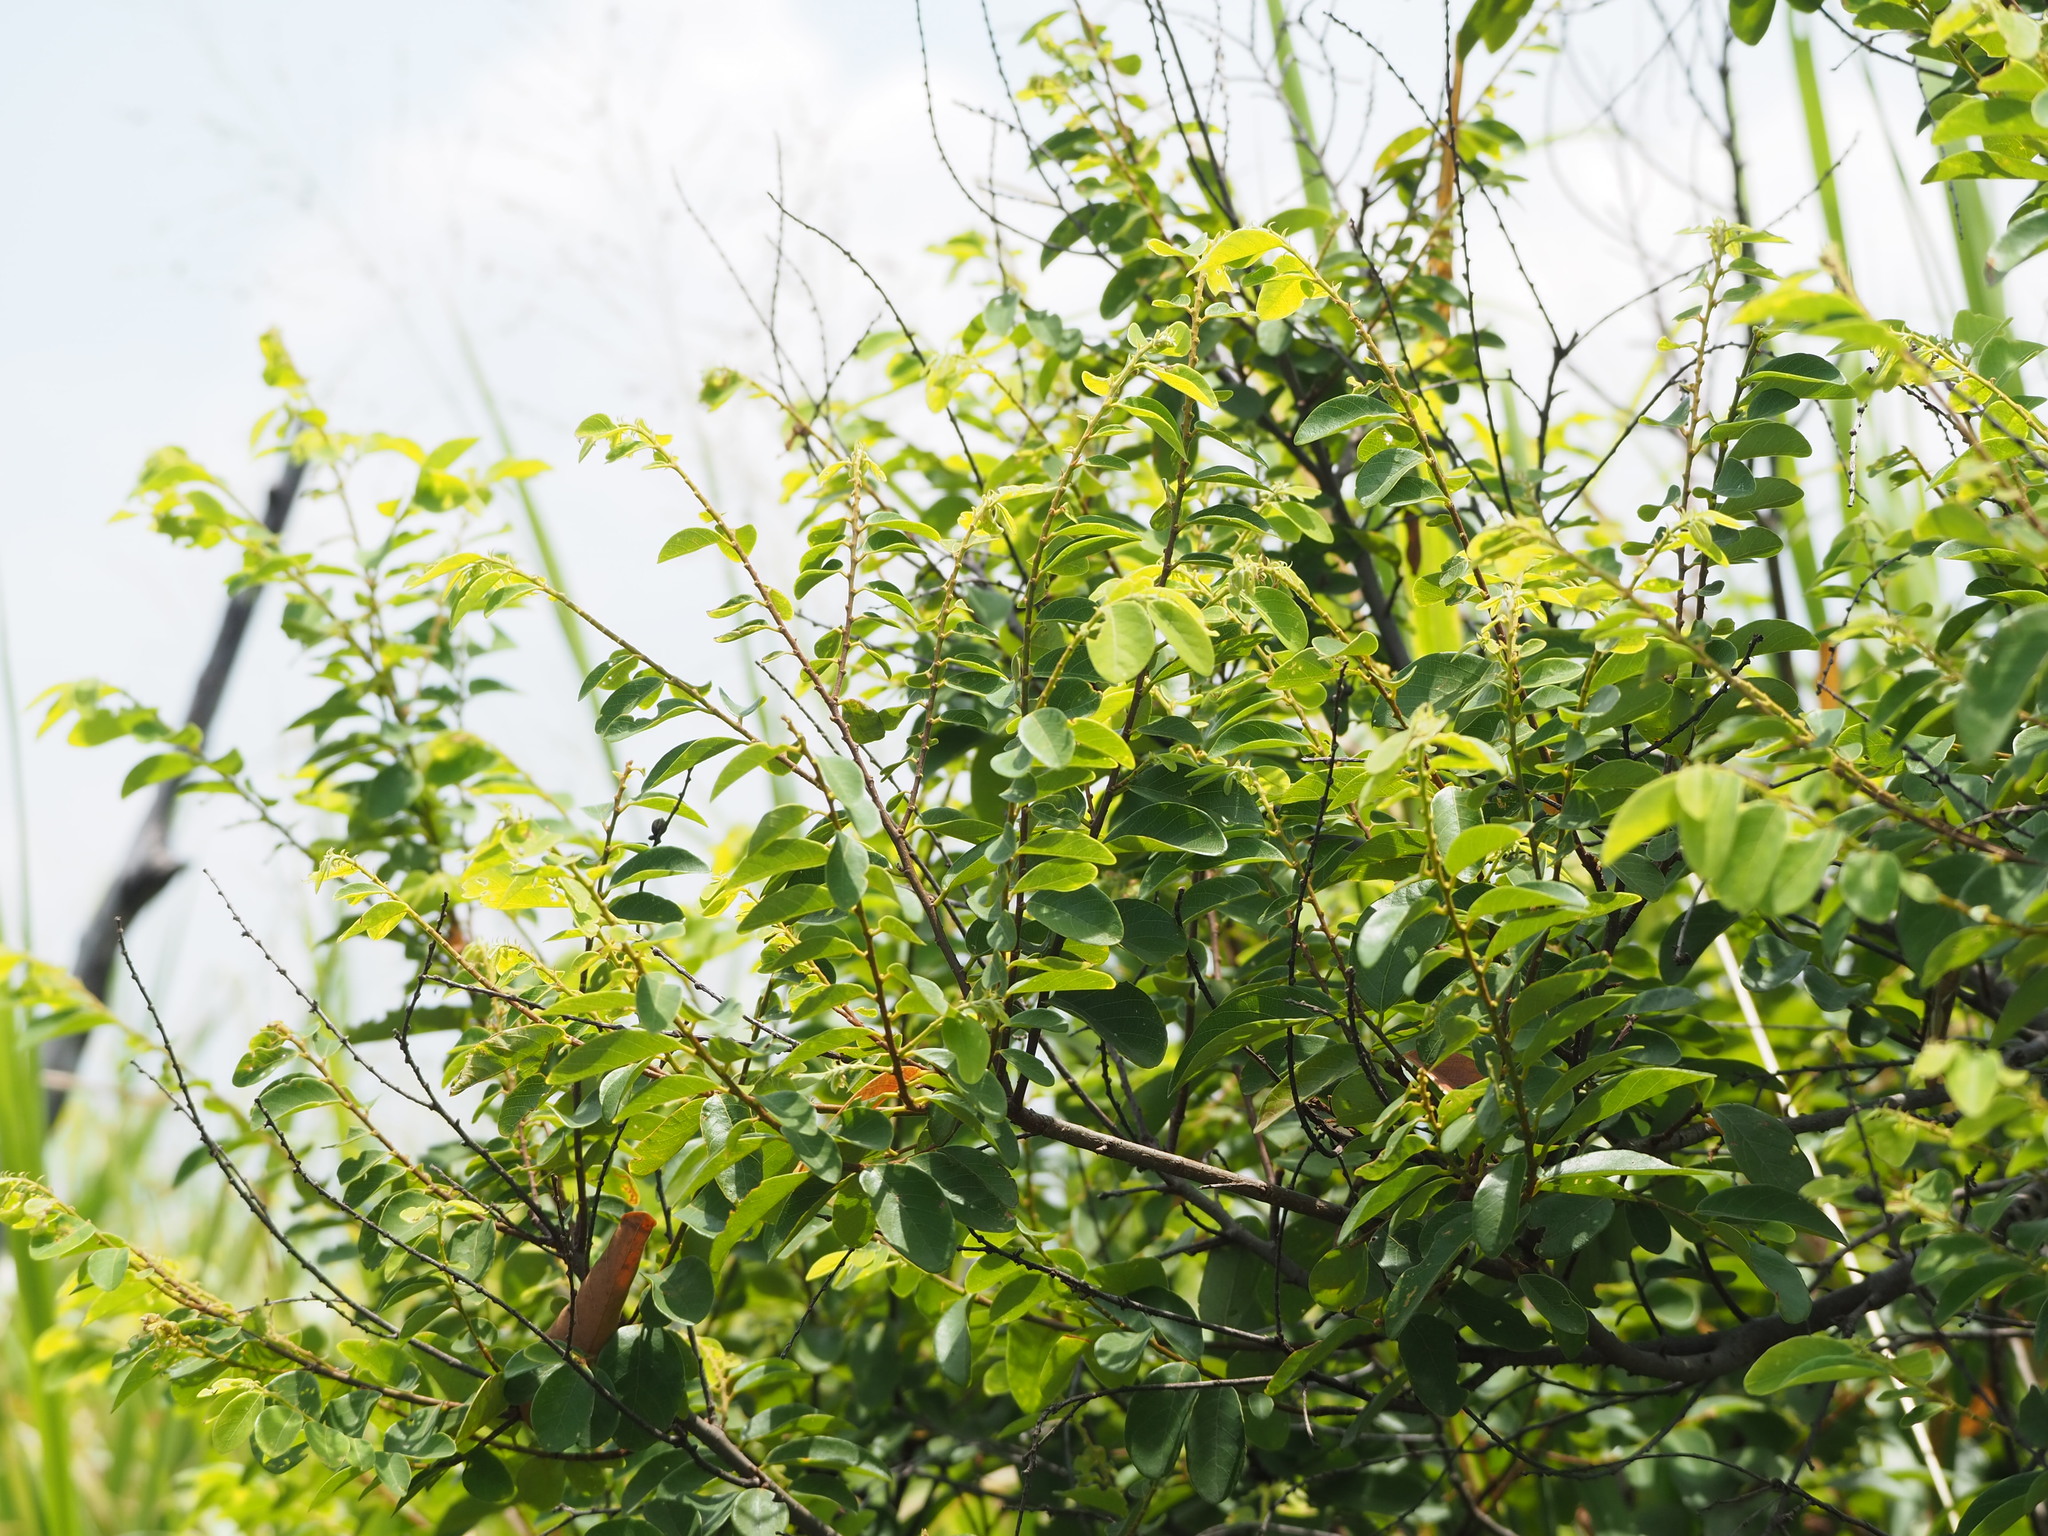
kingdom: Plantae
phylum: Tracheophyta
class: Magnoliopsida
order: Malpighiales
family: Phyllanthaceae
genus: Bridelia
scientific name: Bridelia tomentosa
